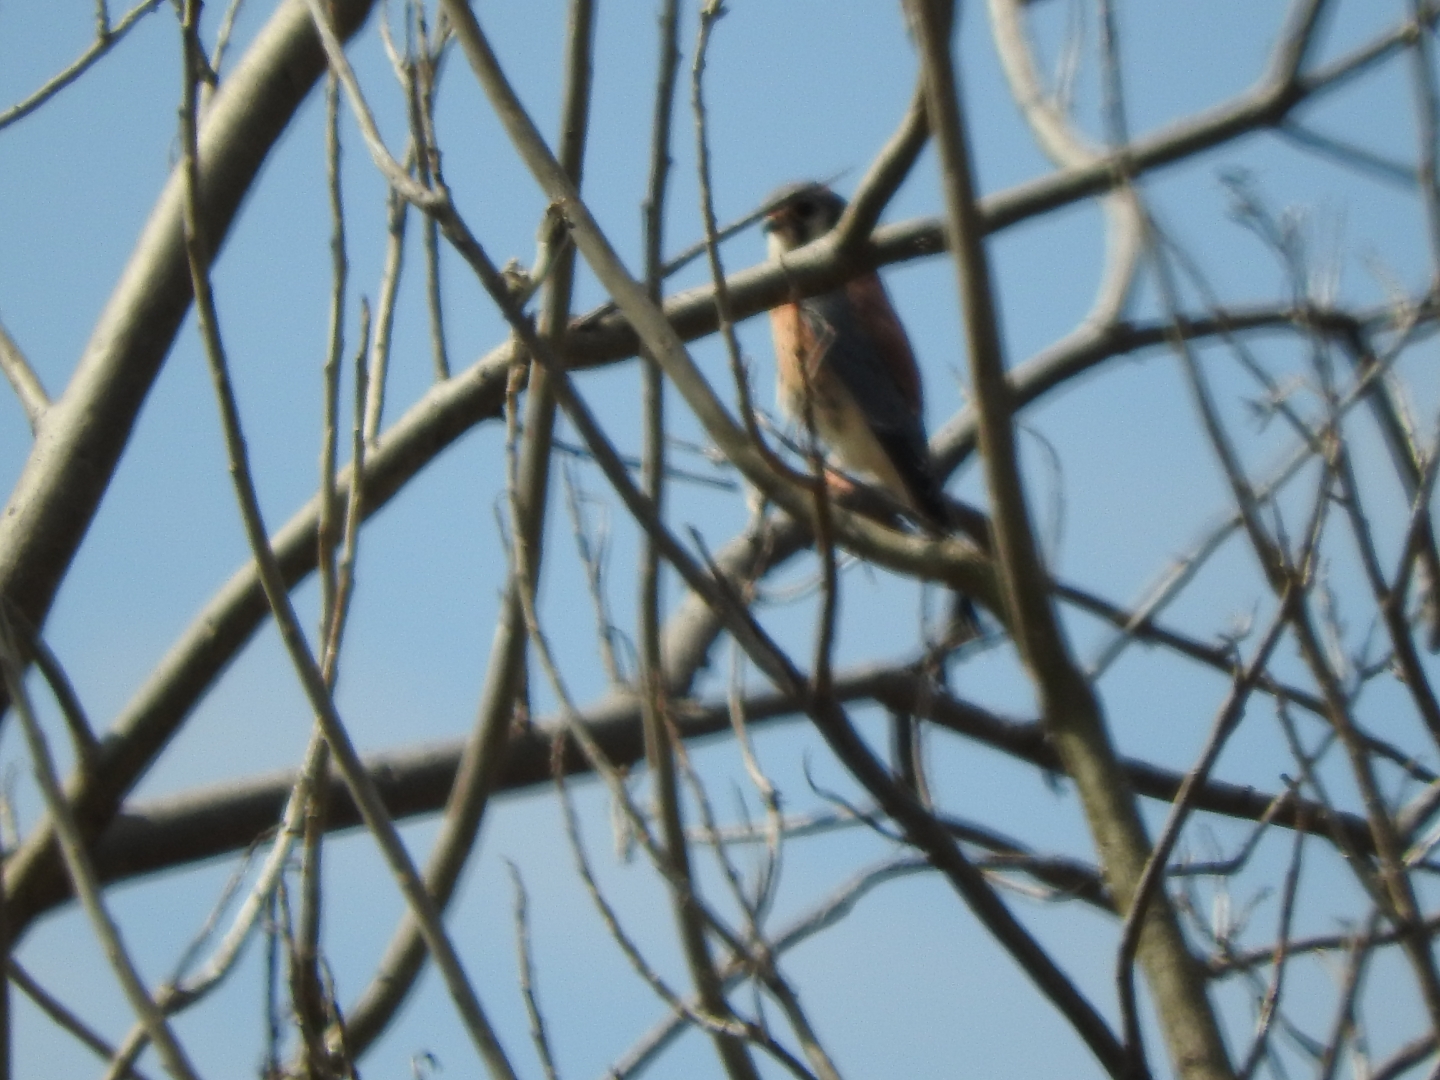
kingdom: Animalia
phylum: Chordata
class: Aves
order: Falconiformes
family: Falconidae
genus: Falco
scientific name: Falco sparverius
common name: American kestrel
